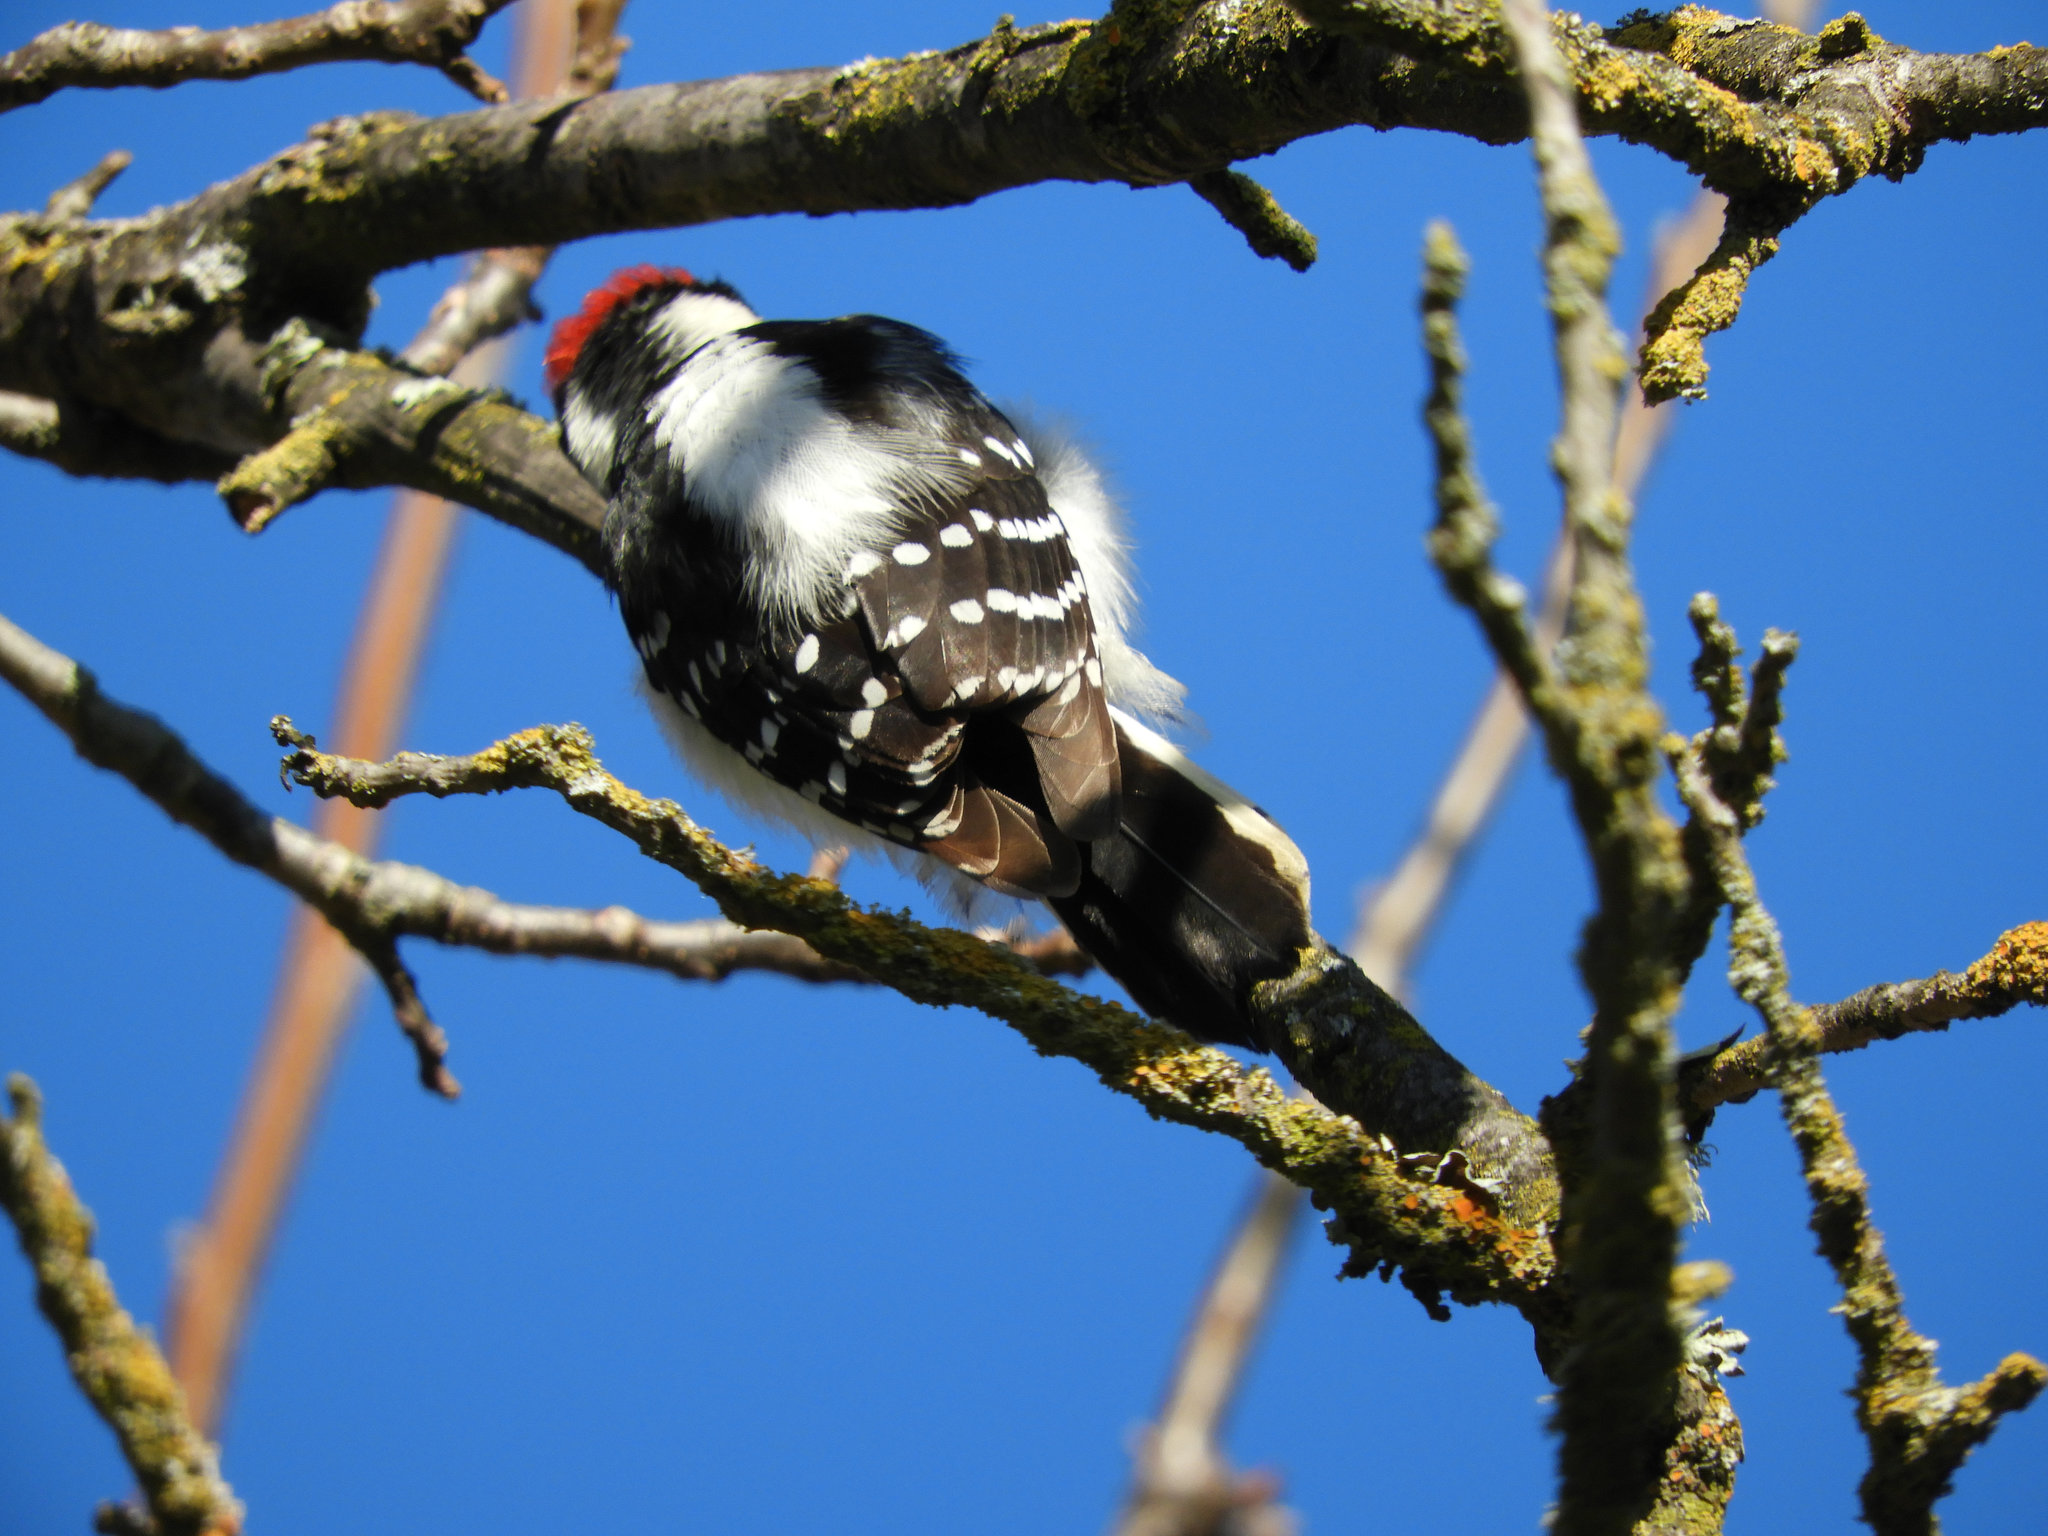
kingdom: Animalia
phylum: Chordata
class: Aves
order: Piciformes
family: Picidae
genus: Dryobates
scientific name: Dryobates pubescens
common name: Downy woodpecker
